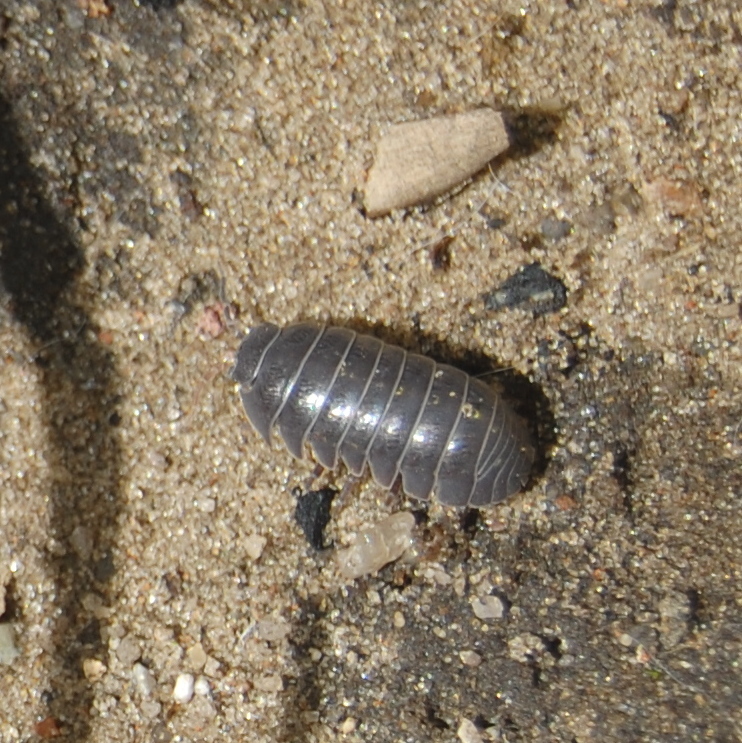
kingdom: Animalia
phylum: Arthropoda
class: Malacostraca
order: Isopoda
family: Armadillidiidae
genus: Armadillidium
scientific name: Armadillidium vulgare
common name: Common pill woodlouse
